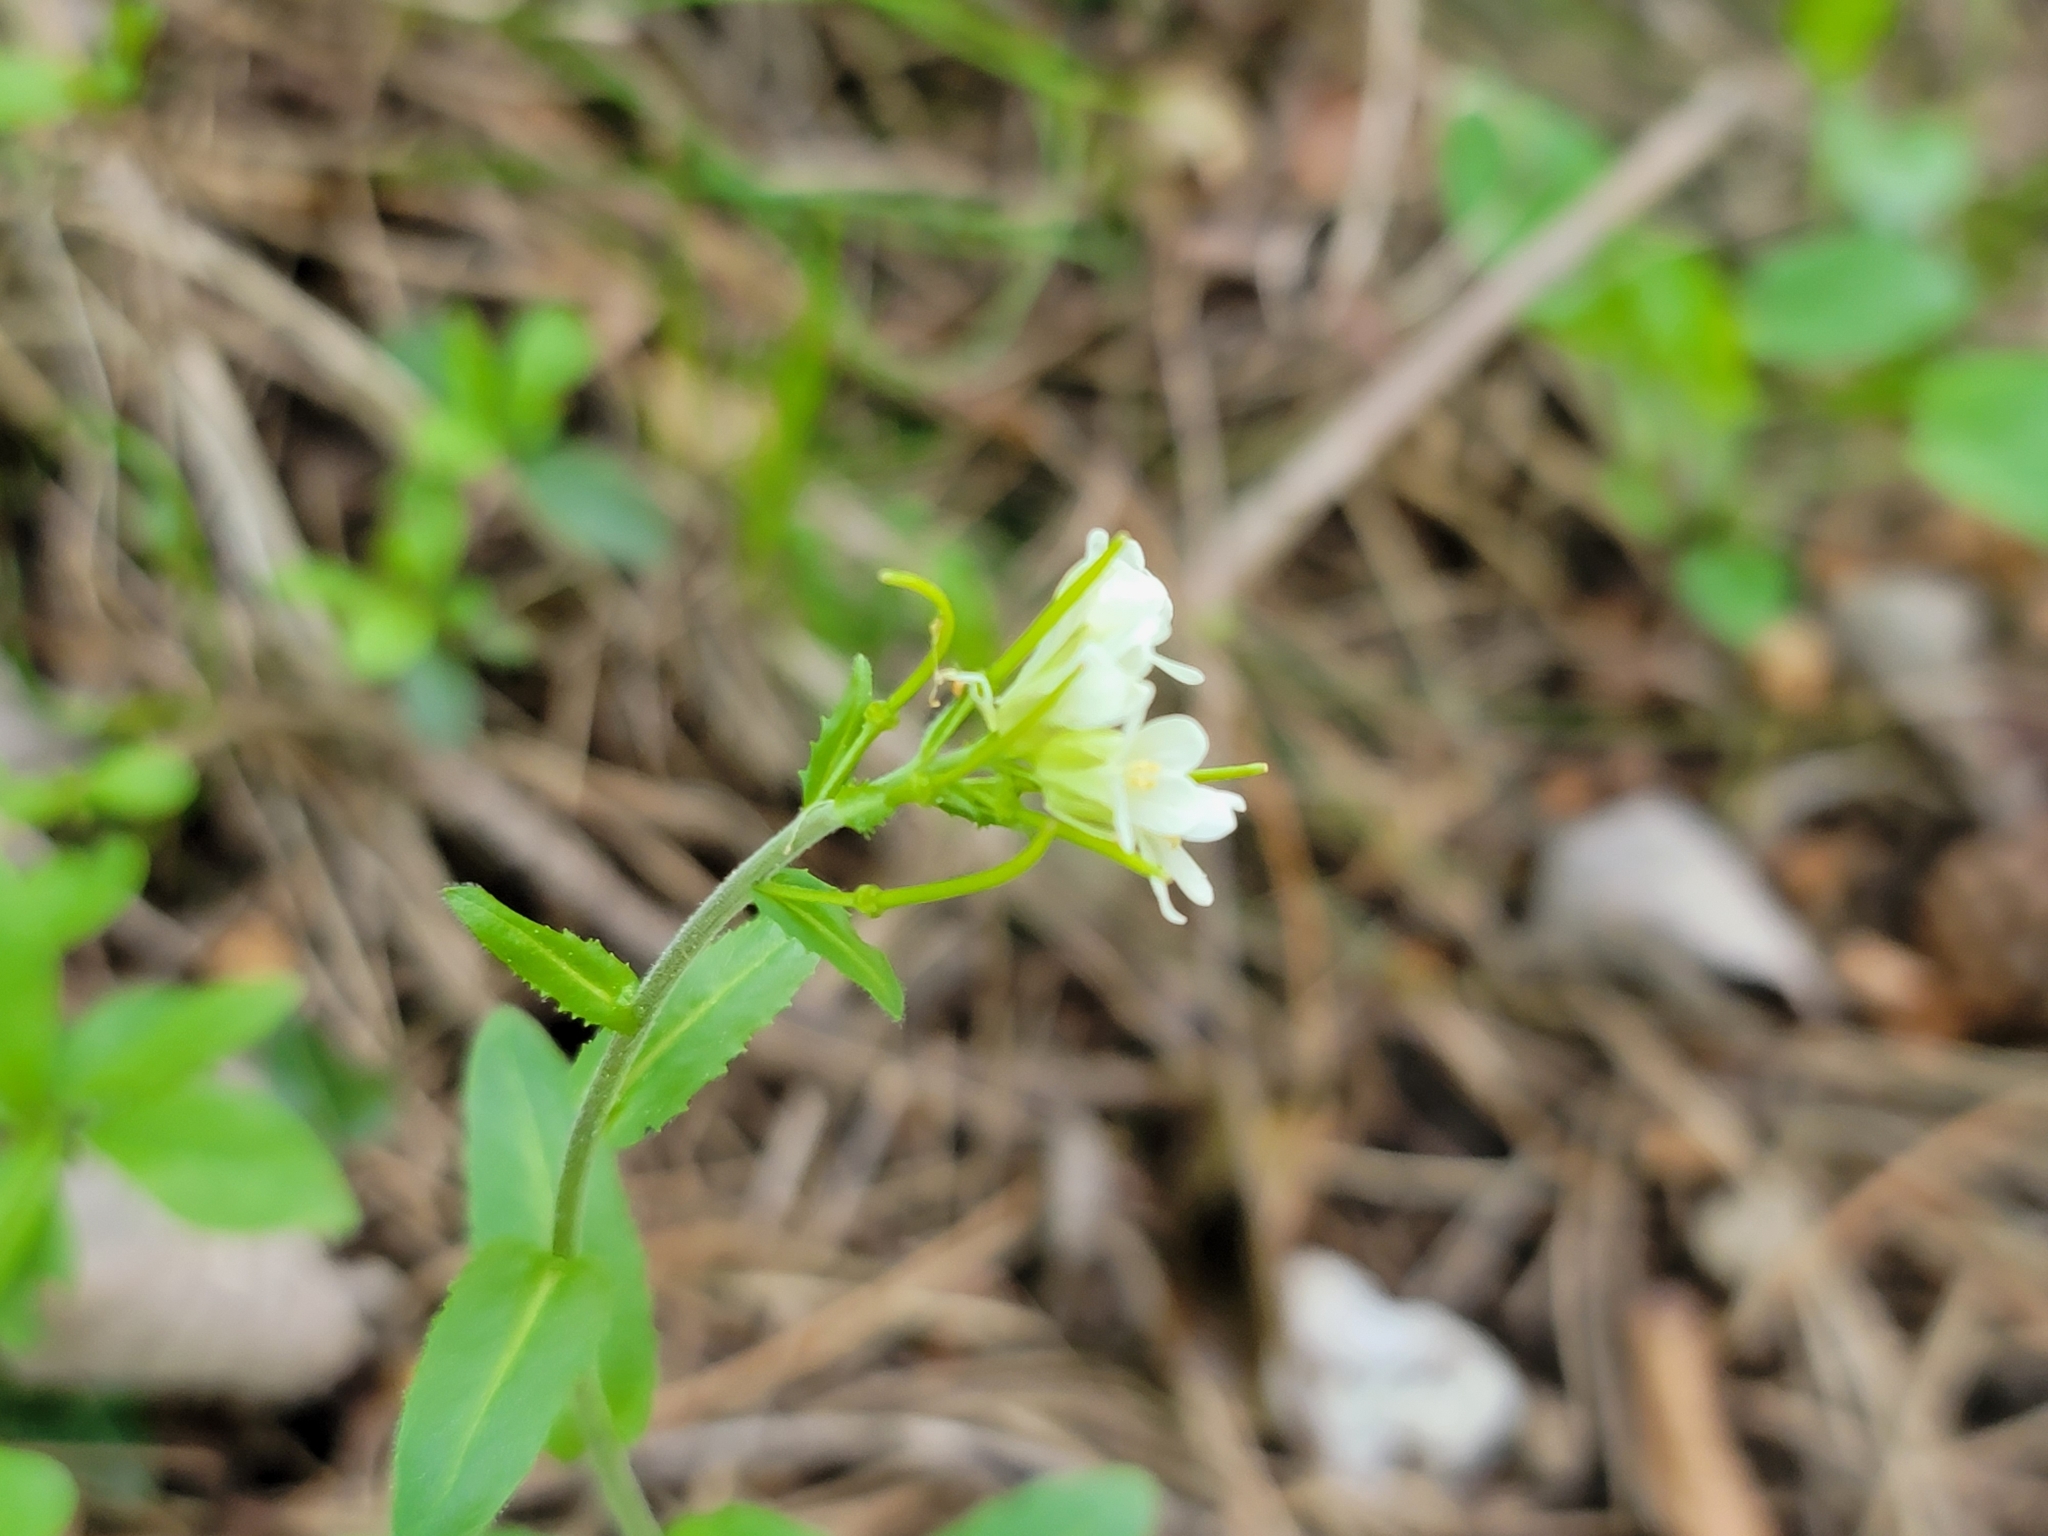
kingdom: Plantae
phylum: Tracheophyta
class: Magnoliopsida
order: Brassicales
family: Brassicaceae
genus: Pseudoturritis
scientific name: Pseudoturritis turrita
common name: Tower cress
